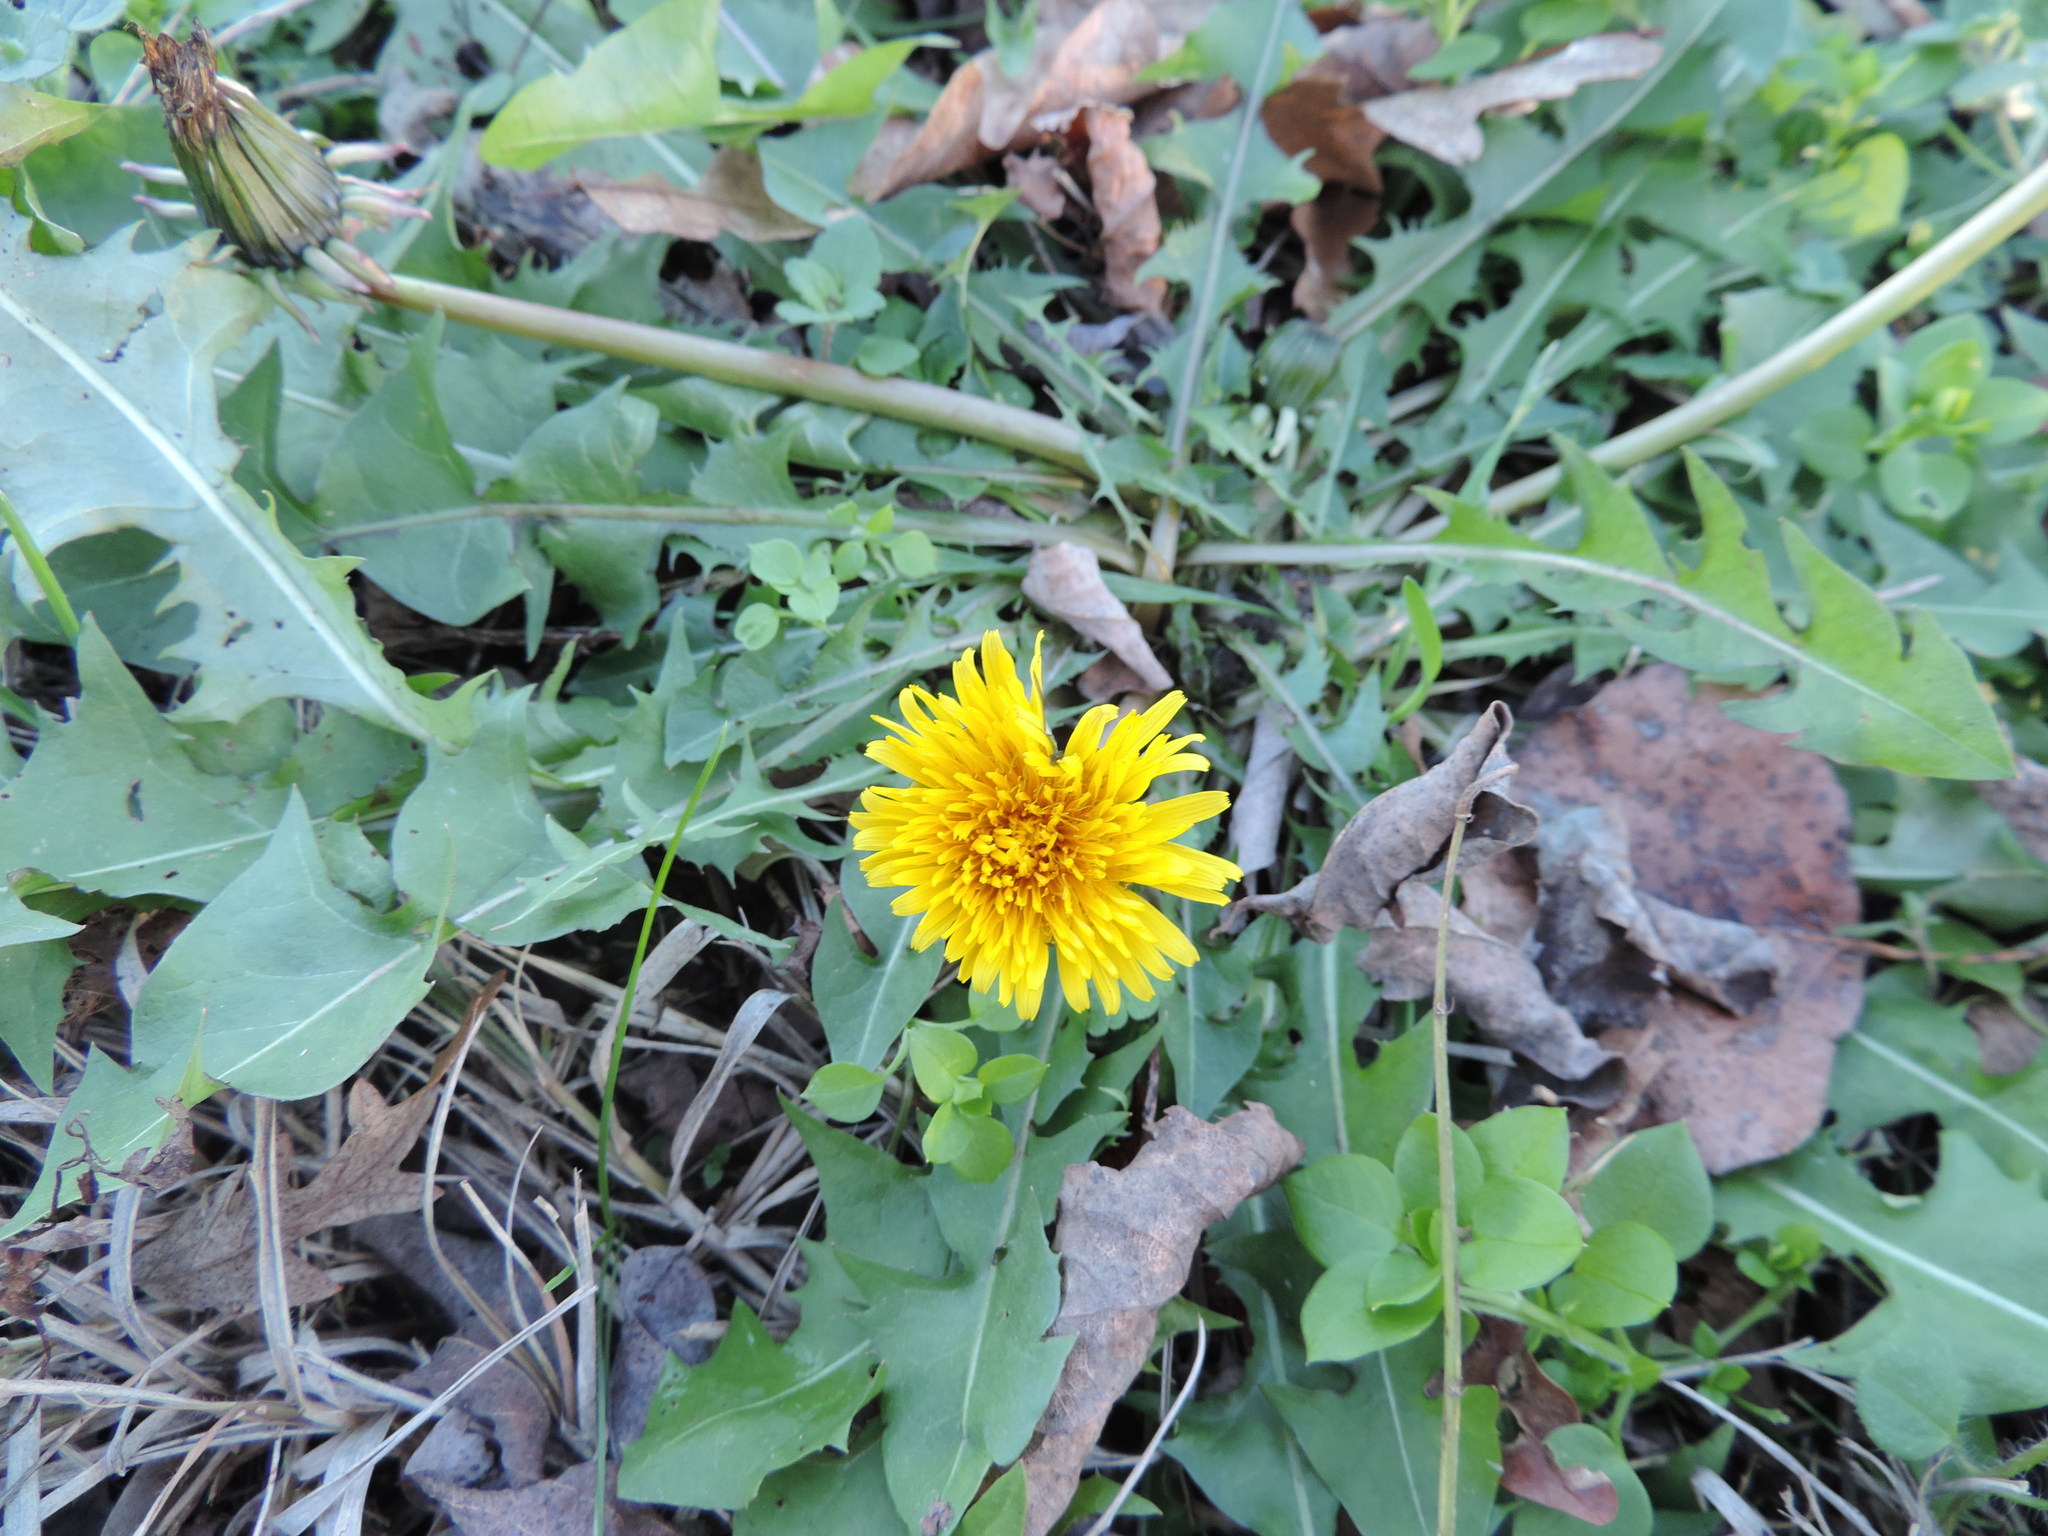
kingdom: Plantae
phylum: Tracheophyta
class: Magnoliopsida
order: Asterales
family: Asteraceae
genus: Taraxacum
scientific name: Taraxacum officinale
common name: Common dandelion
